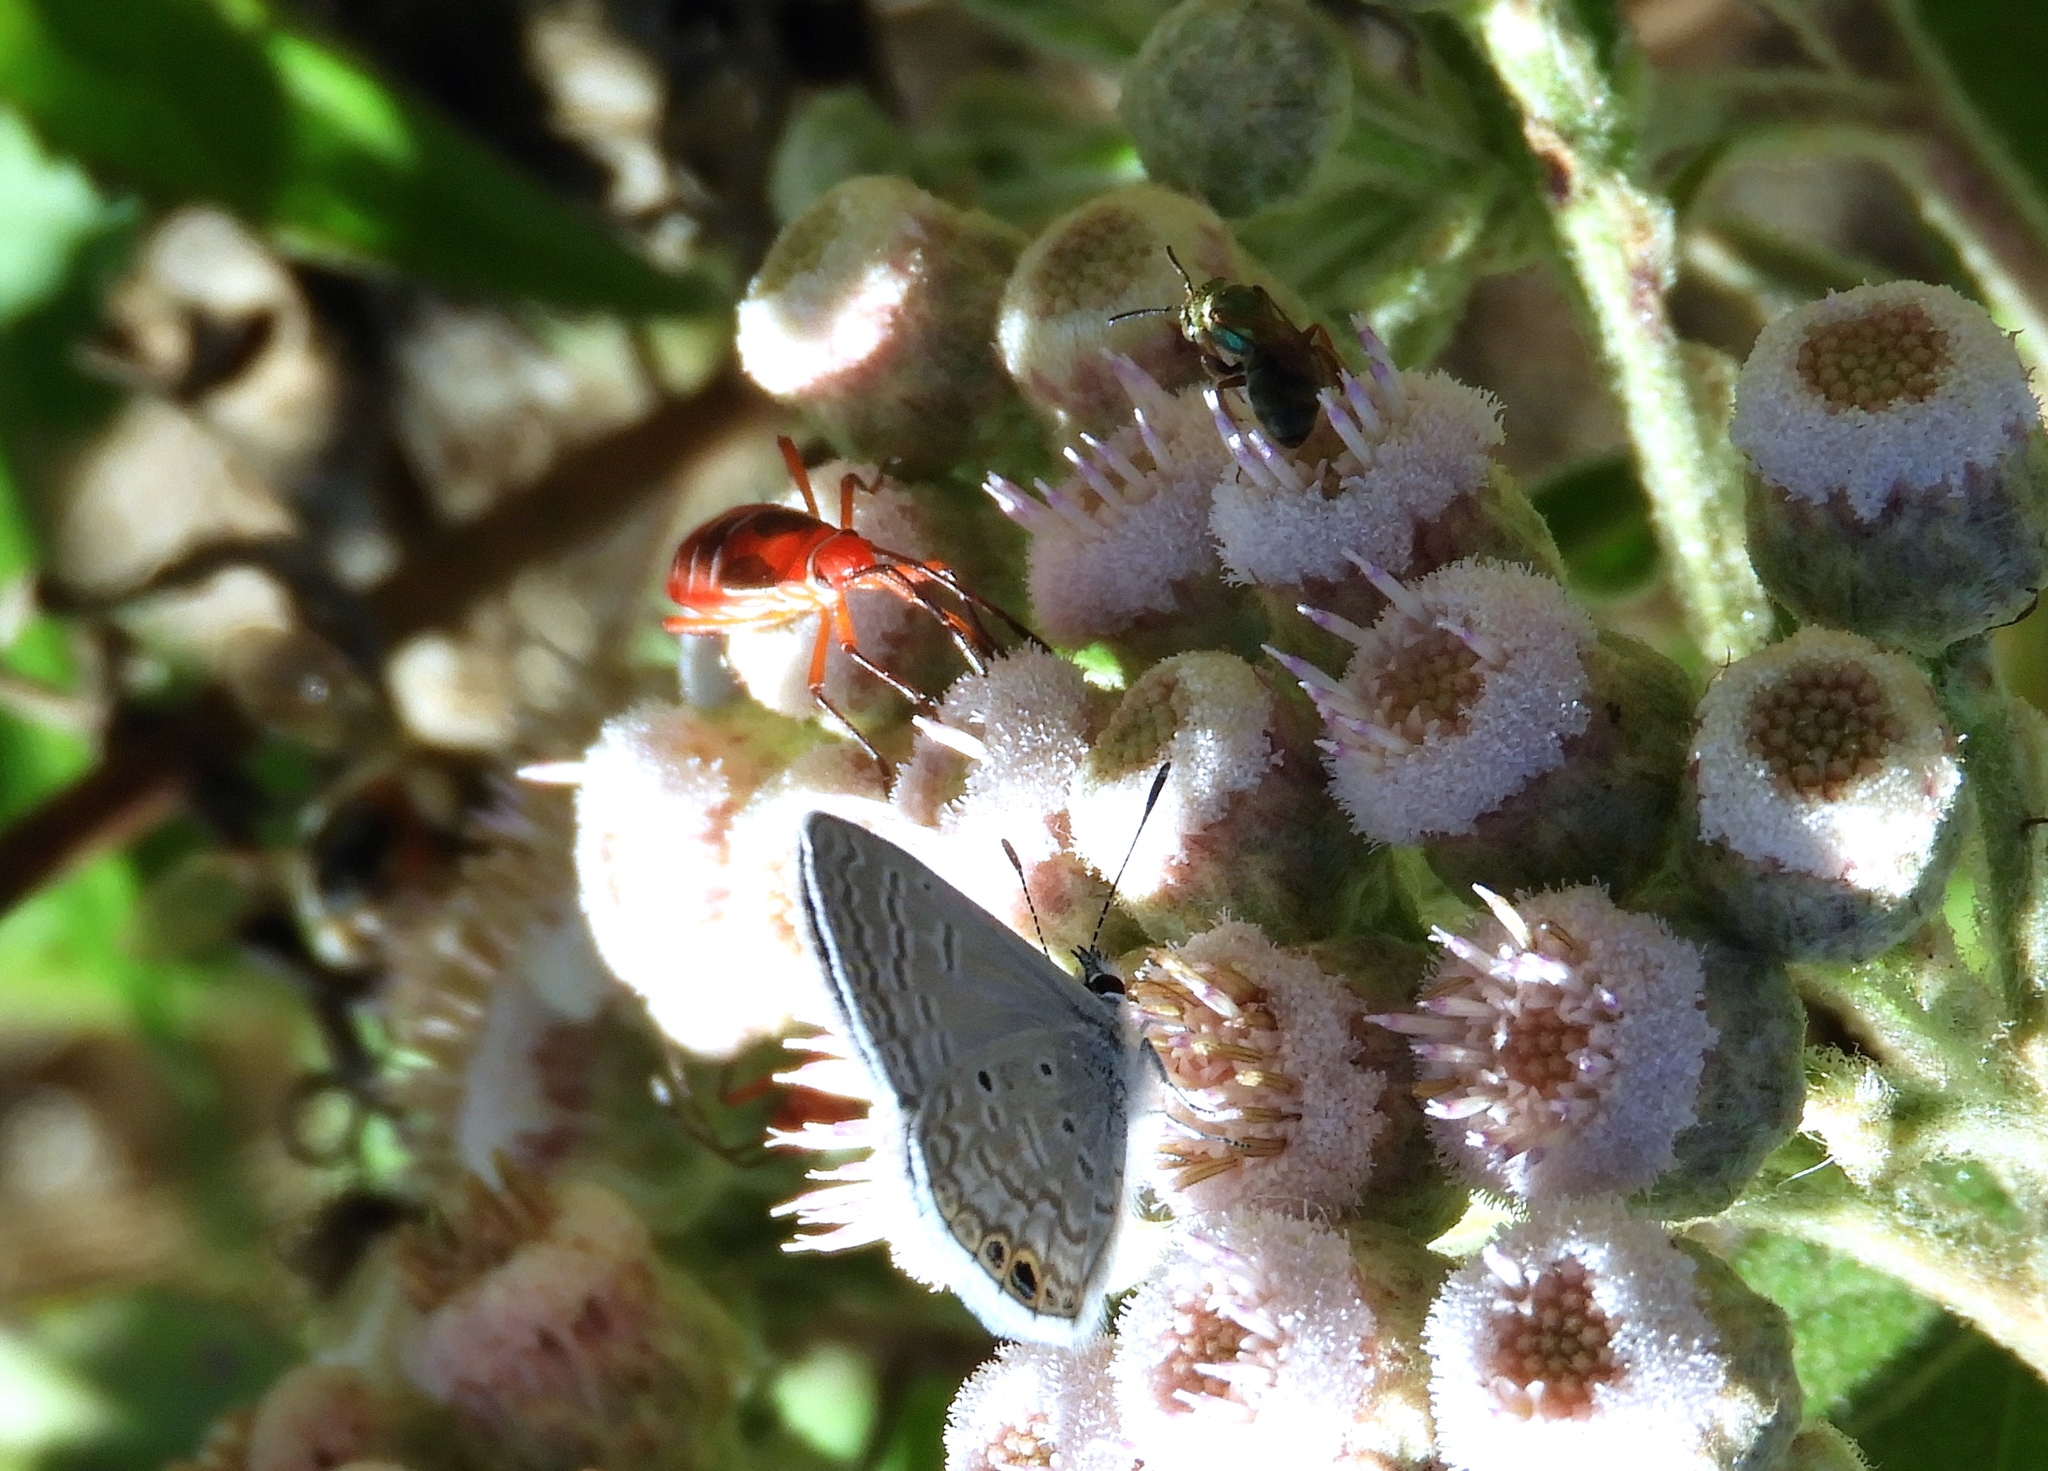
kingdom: Animalia
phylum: Arthropoda
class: Insecta
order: Hemiptera
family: Pyrrhocoridae
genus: Dysdercus
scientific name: Dysdercus
